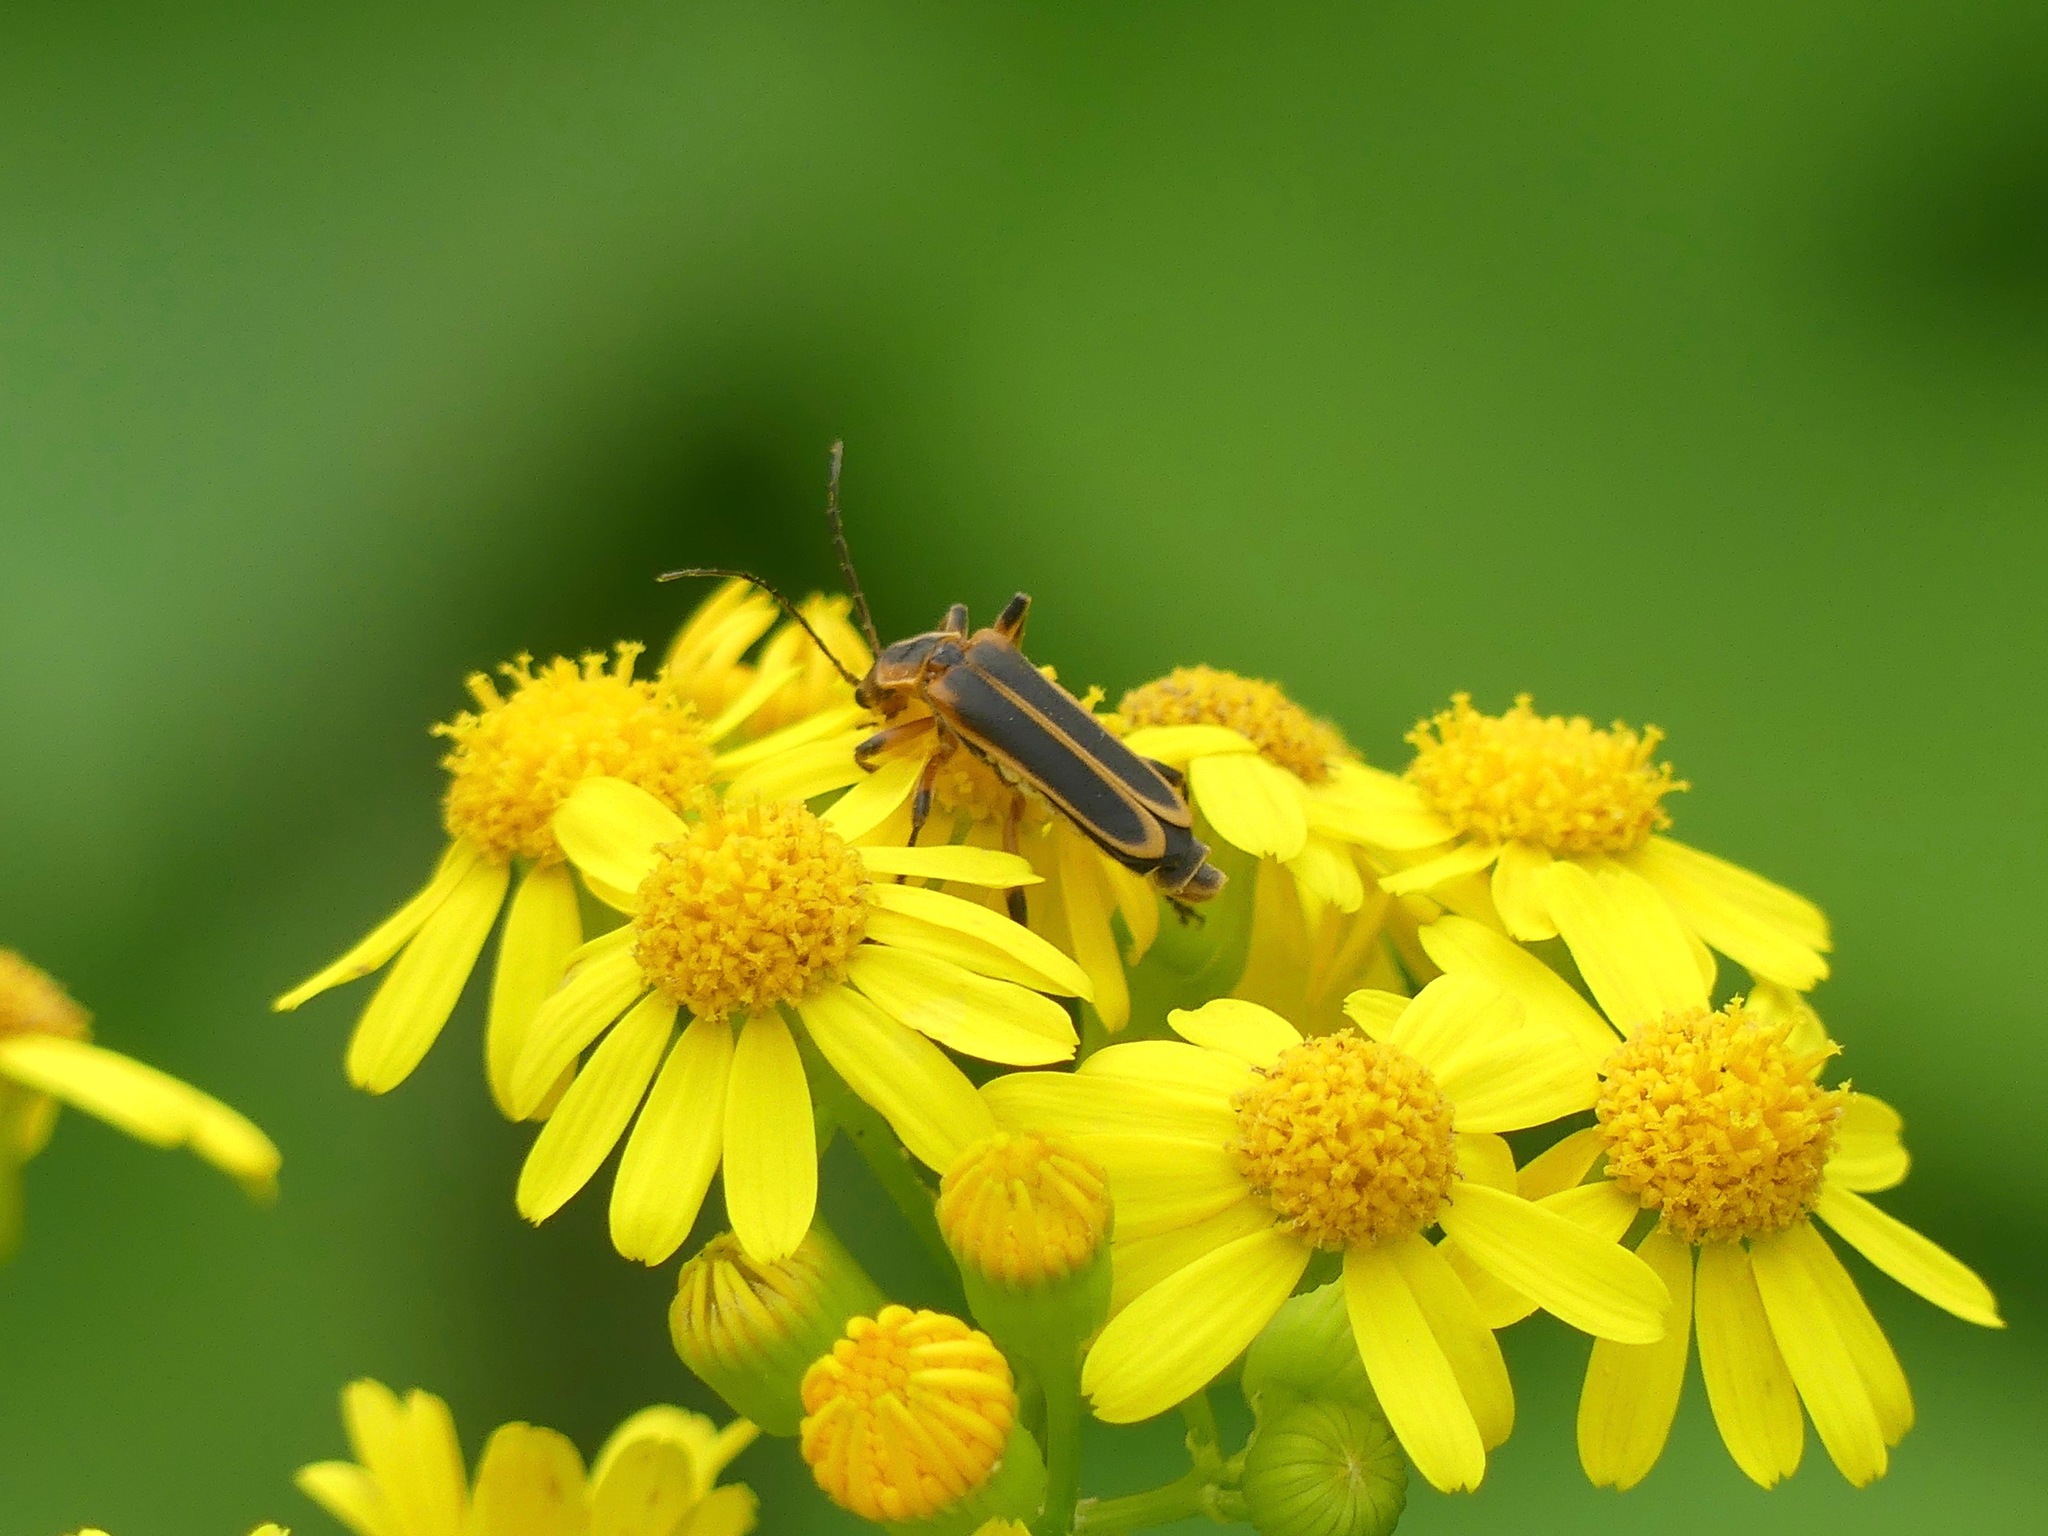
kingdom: Animalia
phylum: Arthropoda
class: Insecta
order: Coleoptera
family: Cantharidae
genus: Chauliognathus
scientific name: Chauliognathus marginatus
